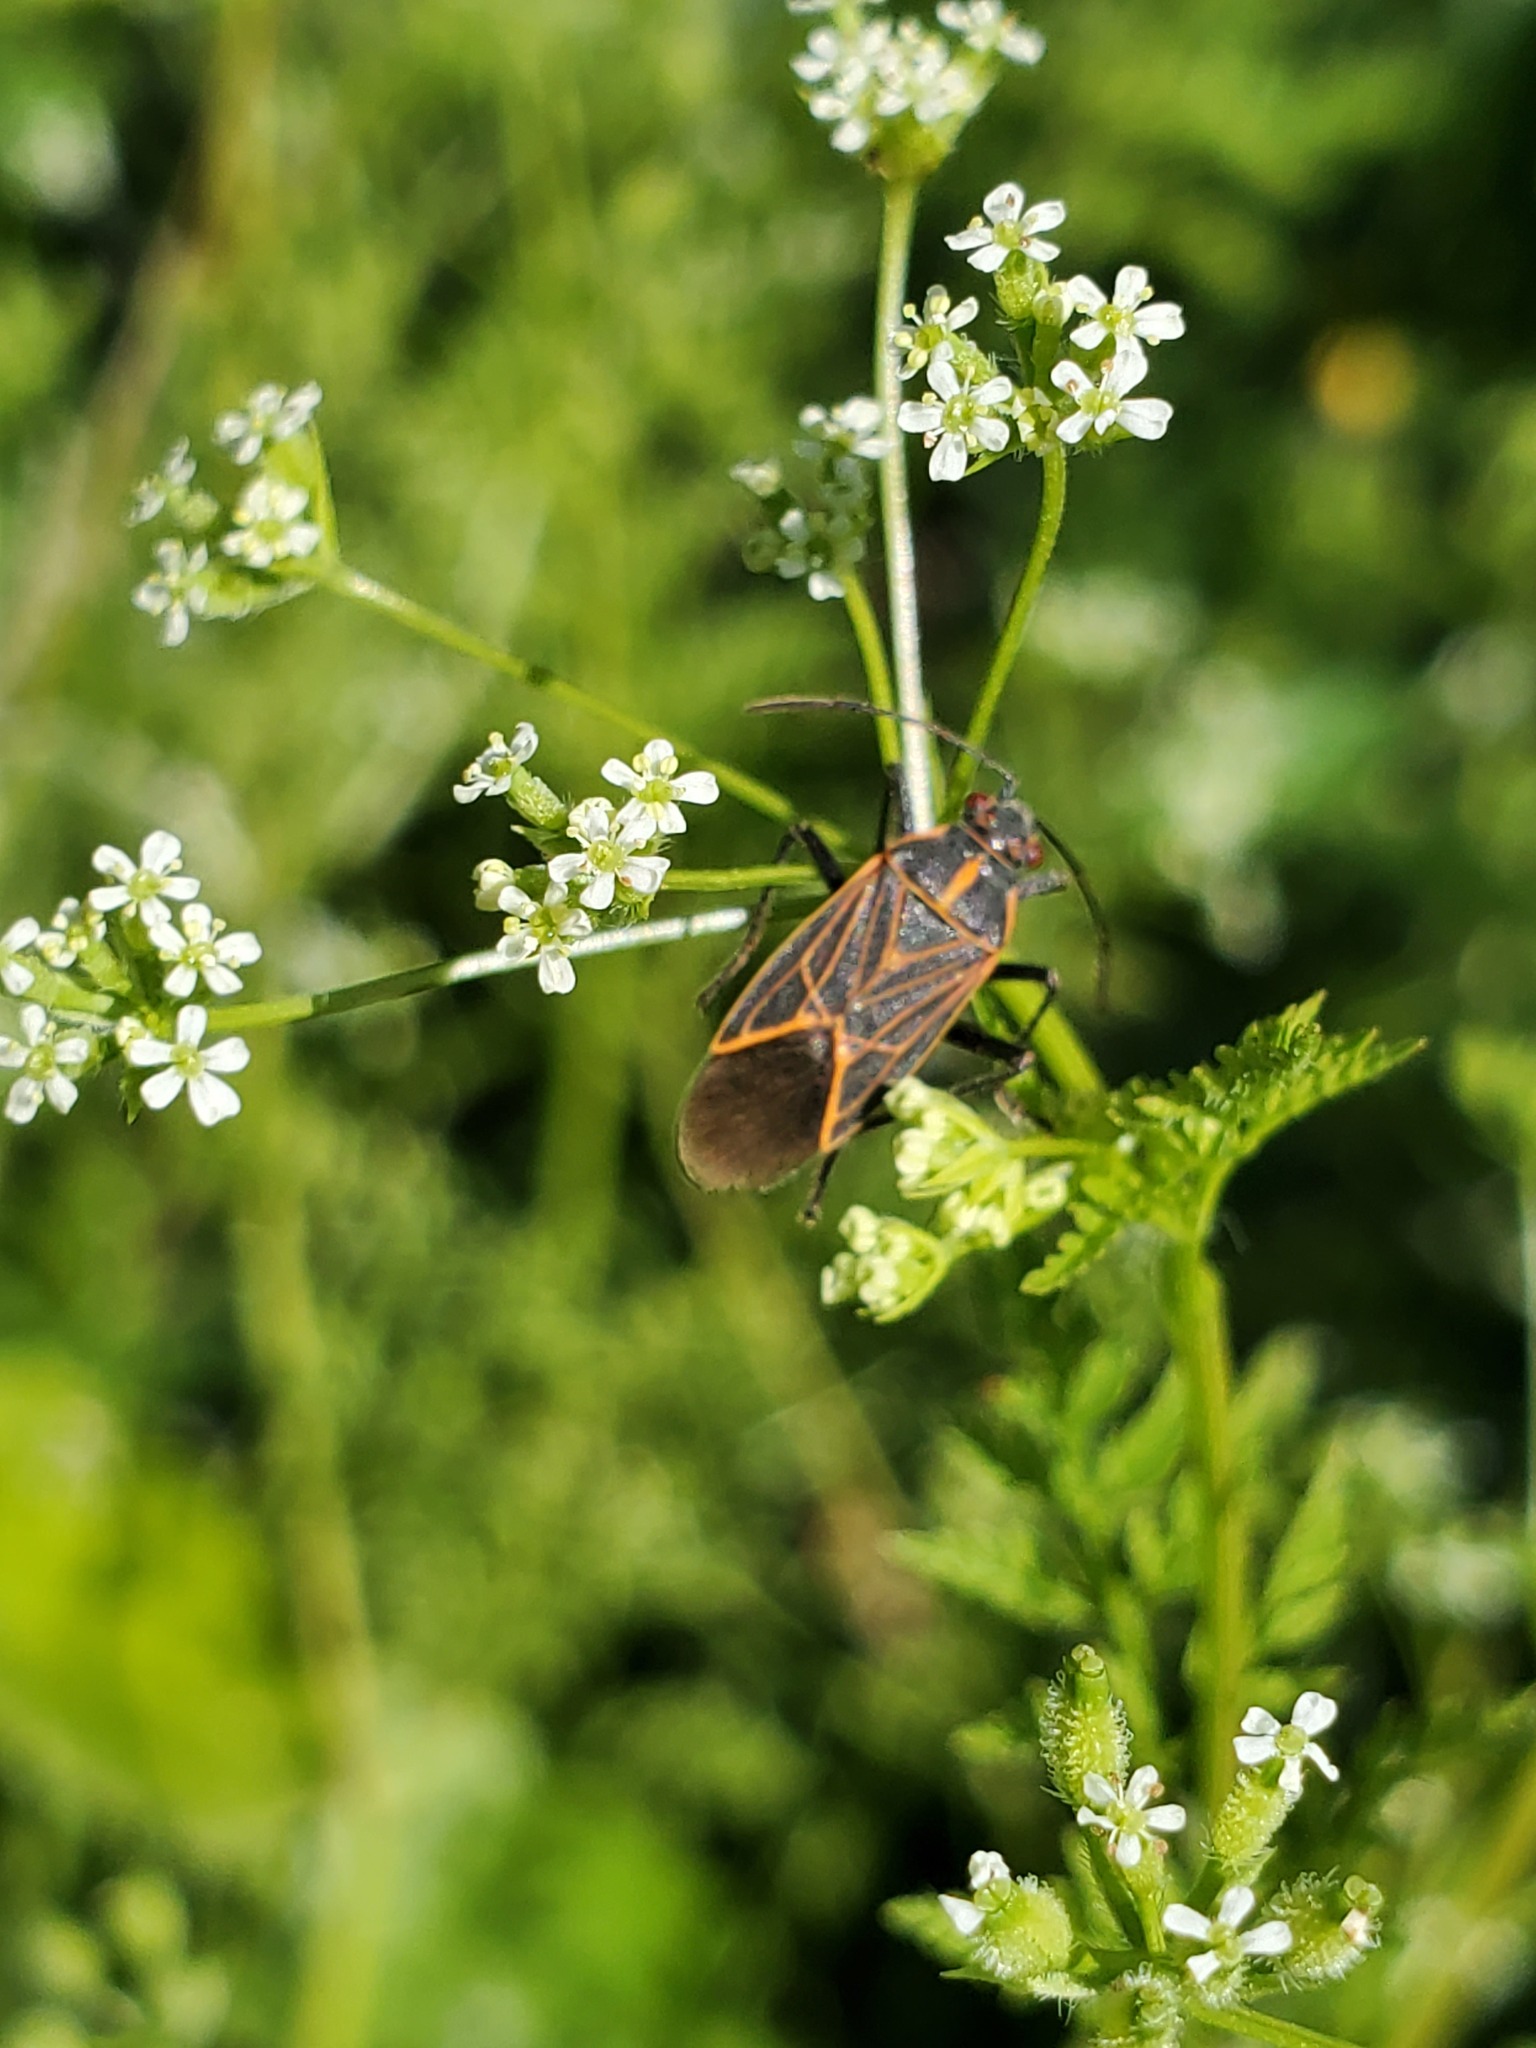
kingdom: Animalia
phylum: Arthropoda
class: Insecta
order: Hemiptera
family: Rhopalidae
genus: Boisea
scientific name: Boisea rubrolineata
